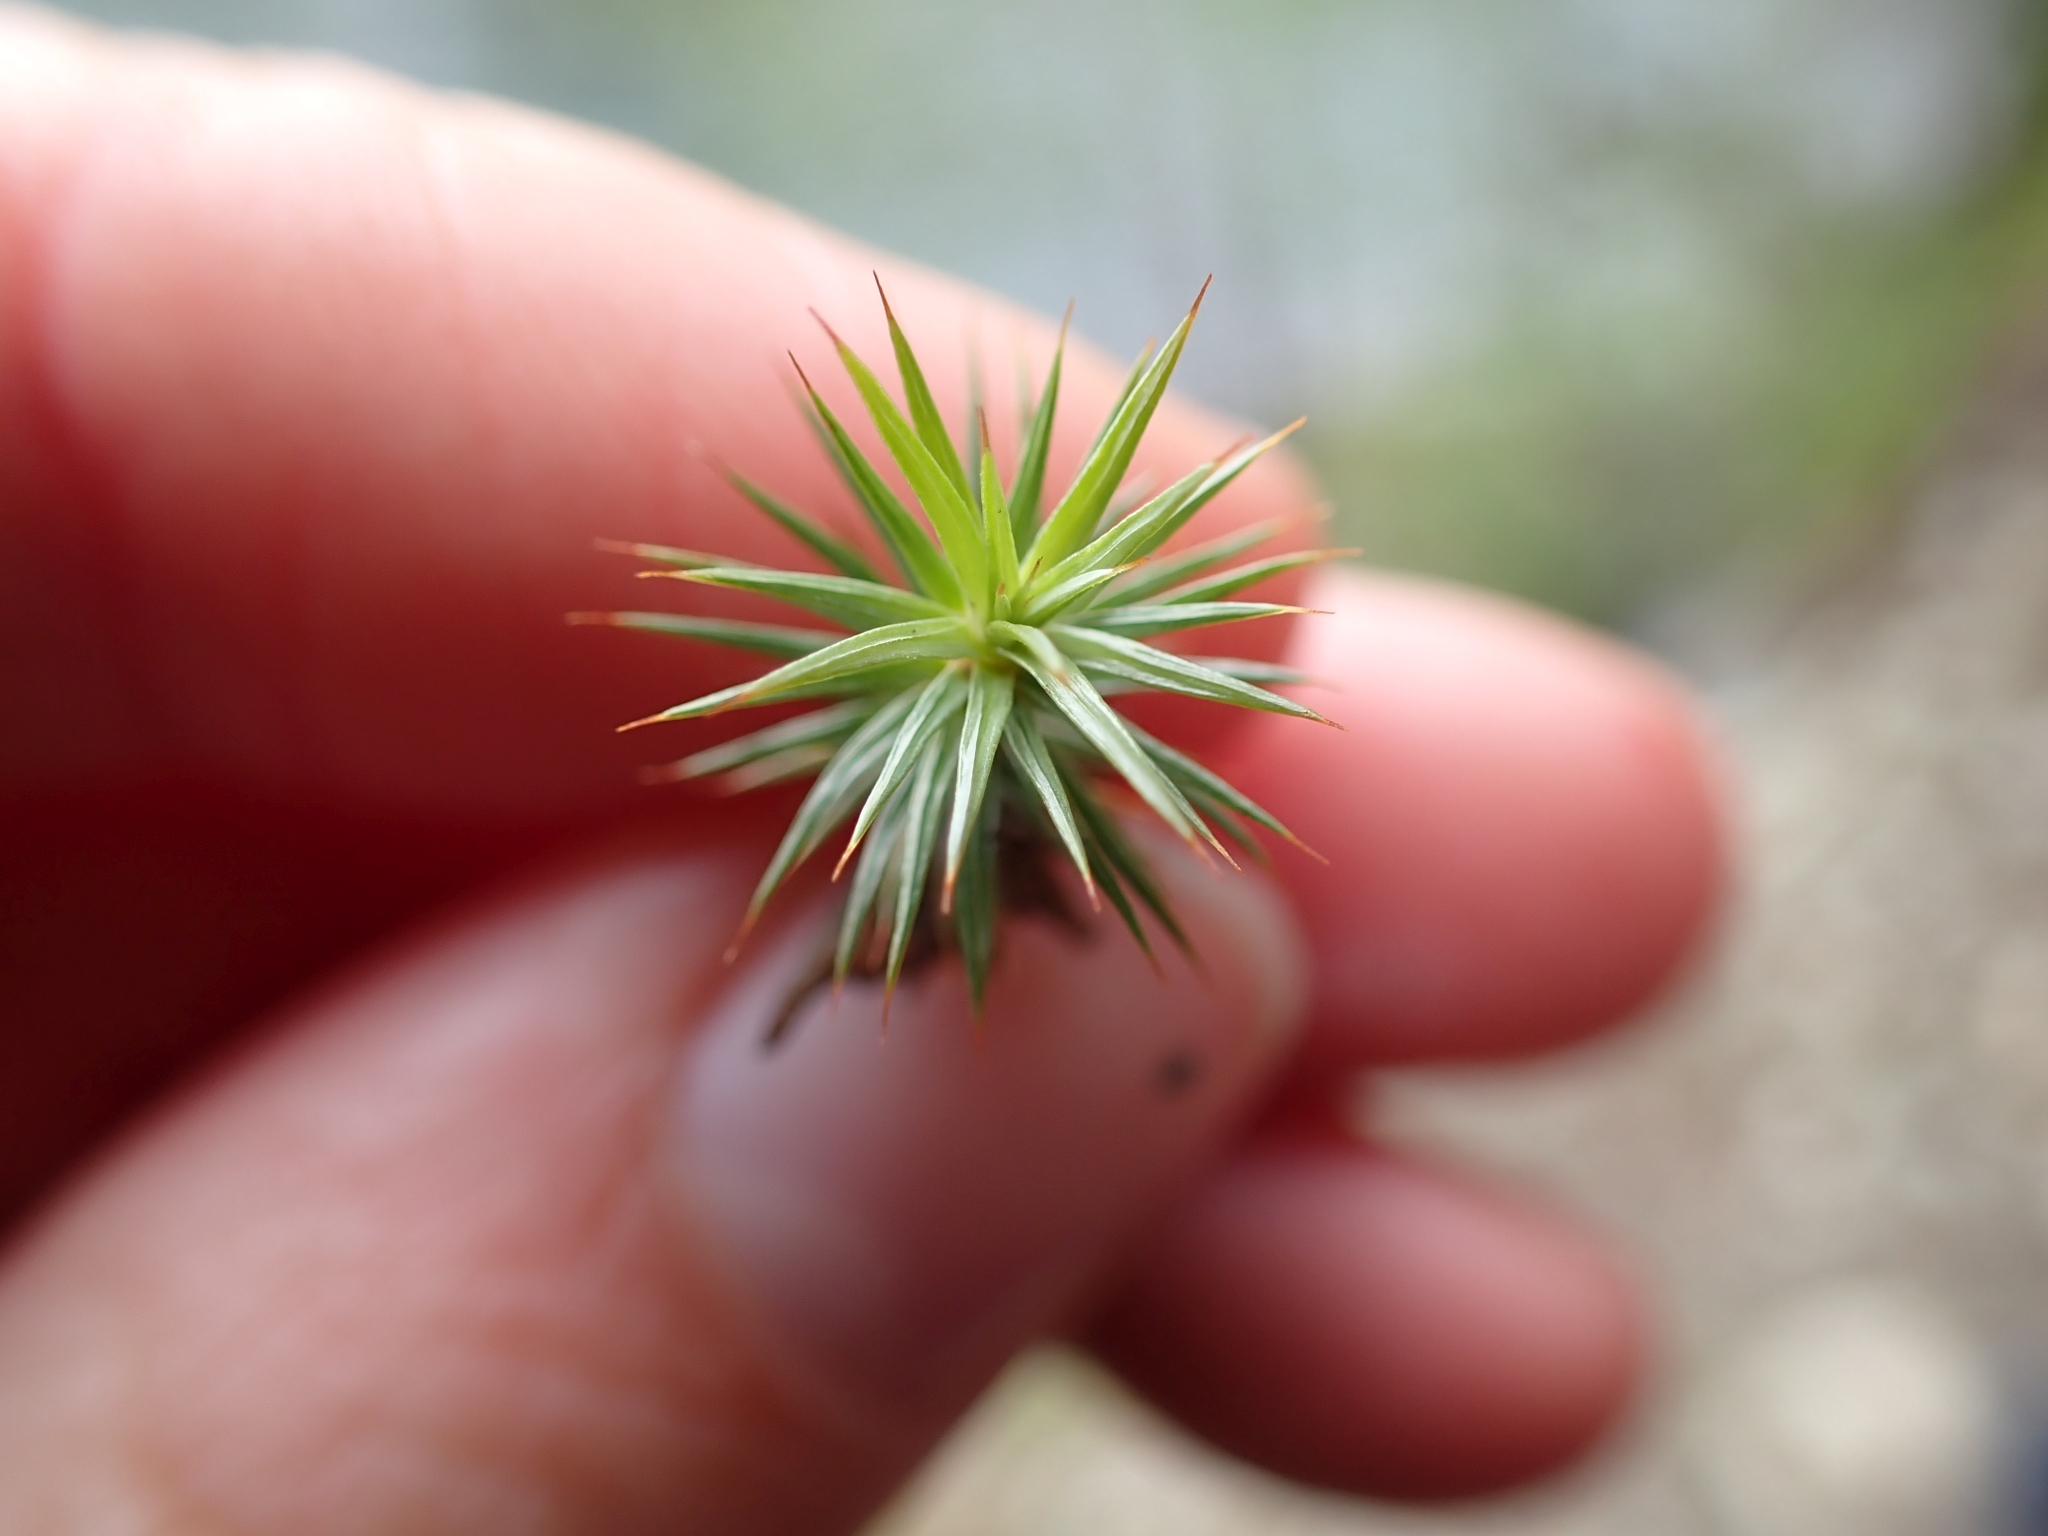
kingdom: Plantae
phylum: Bryophyta
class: Polytrichopsida
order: Polytrichales
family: Polytrichaceae
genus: Polytrichum
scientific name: Polytrichum juniperinum
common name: Juniper haircap moss
